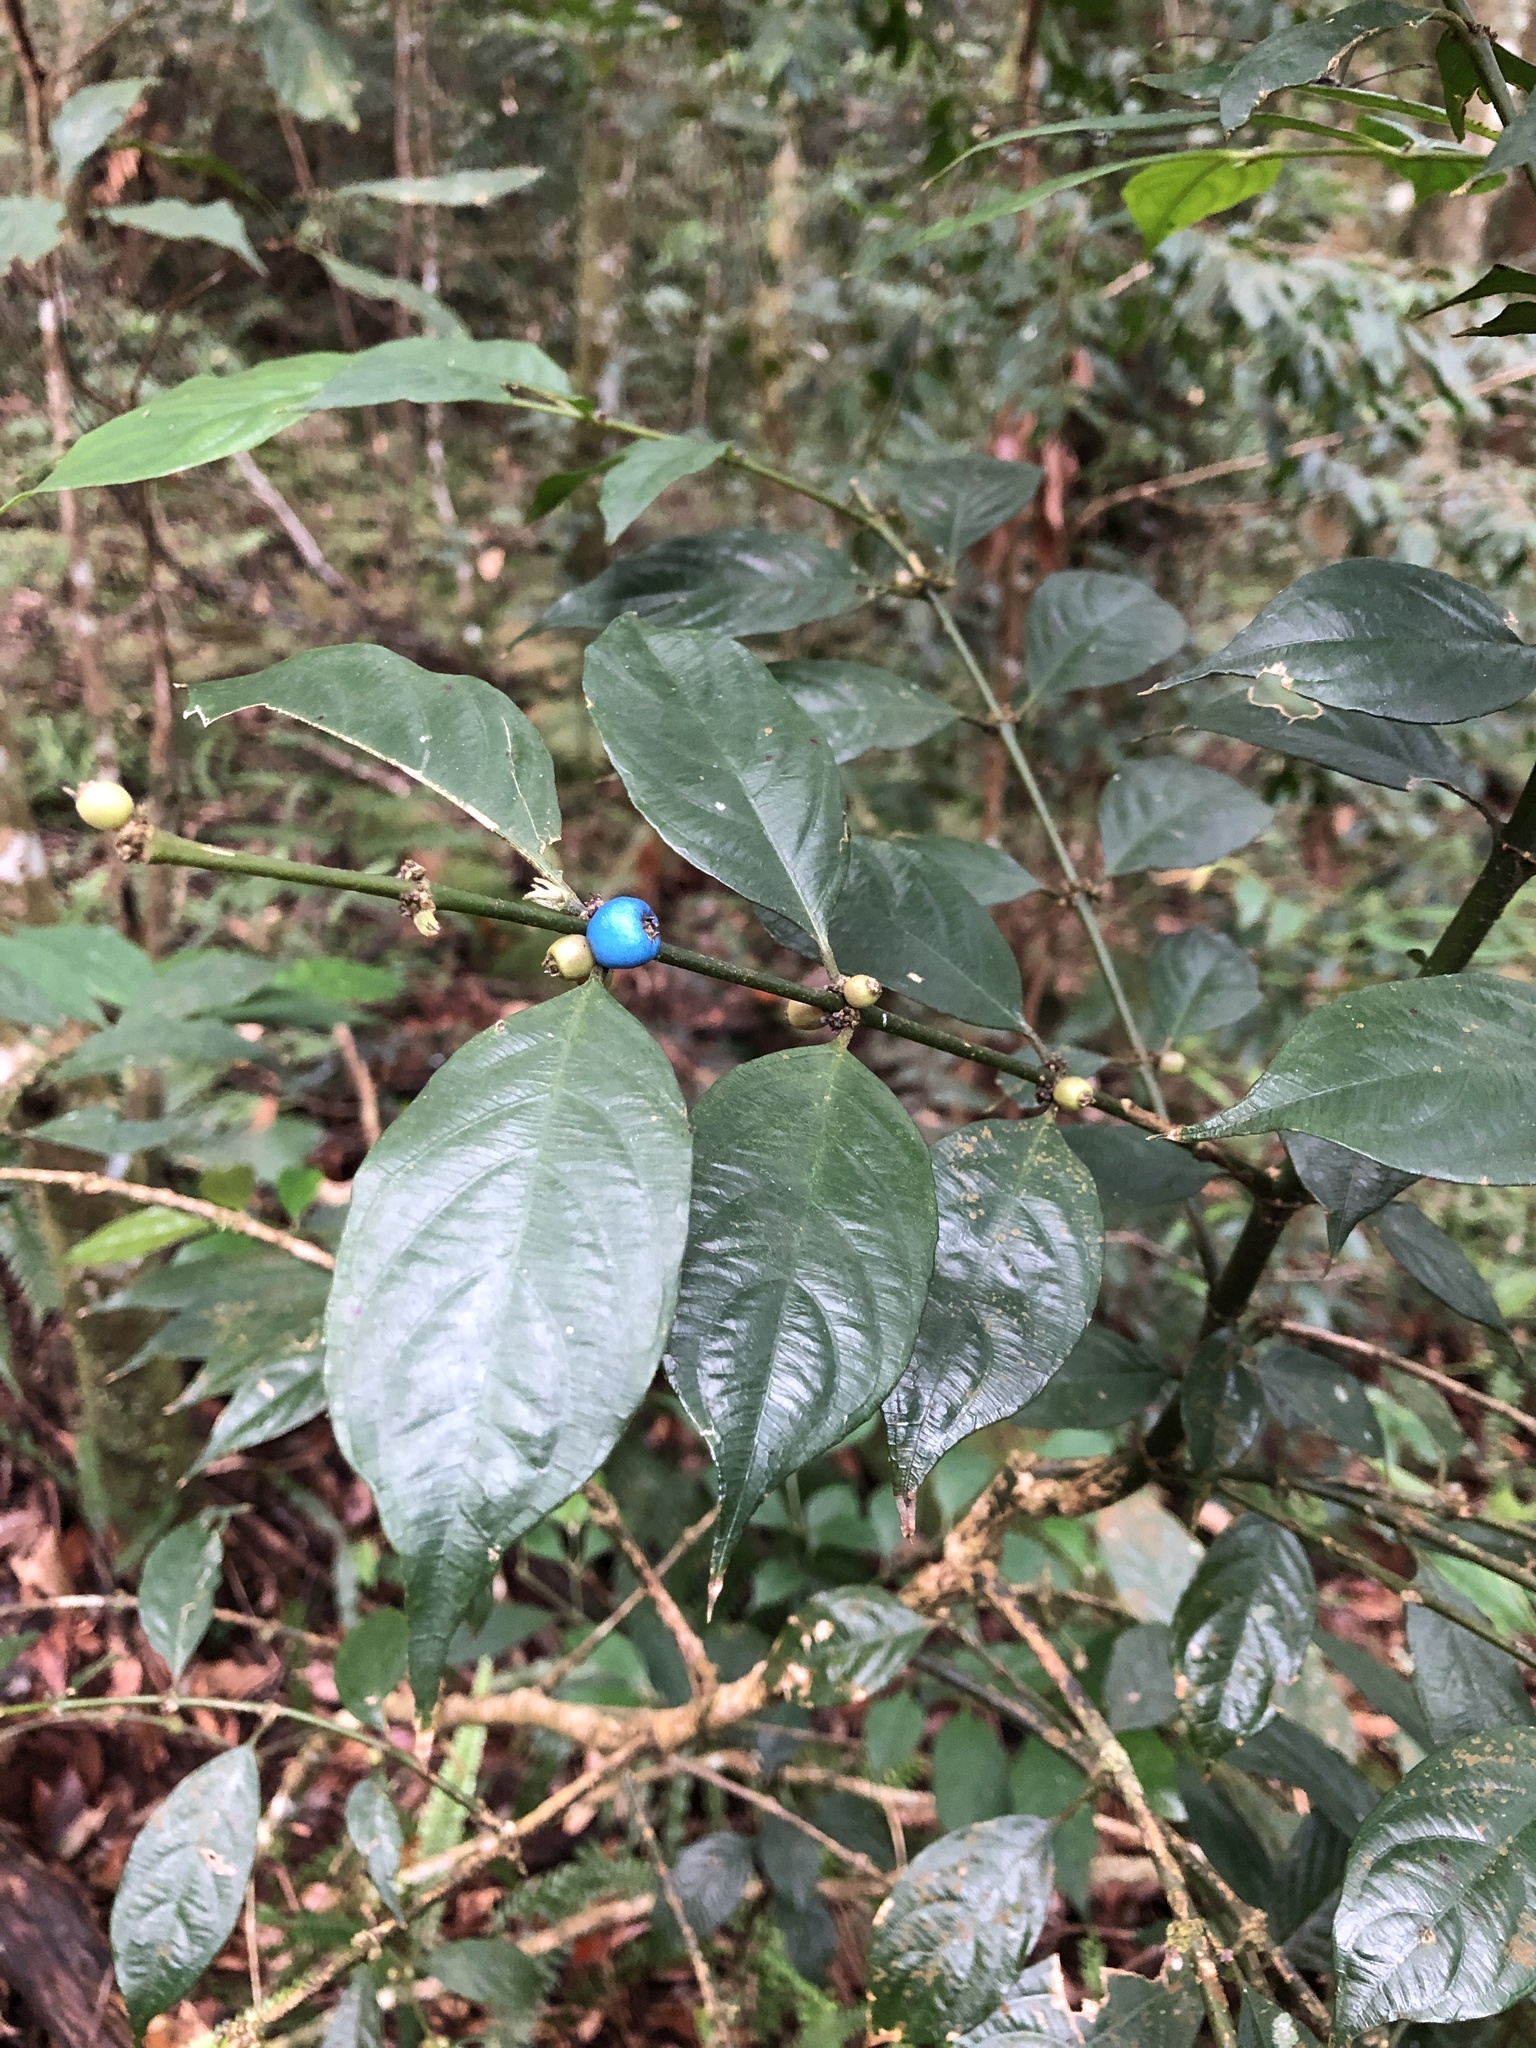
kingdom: Plantae
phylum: Tracheophyta
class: Magnoliopsida
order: Gentianales
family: Rubiaceae
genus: Lasianthus
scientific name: Lasianthus fordii
